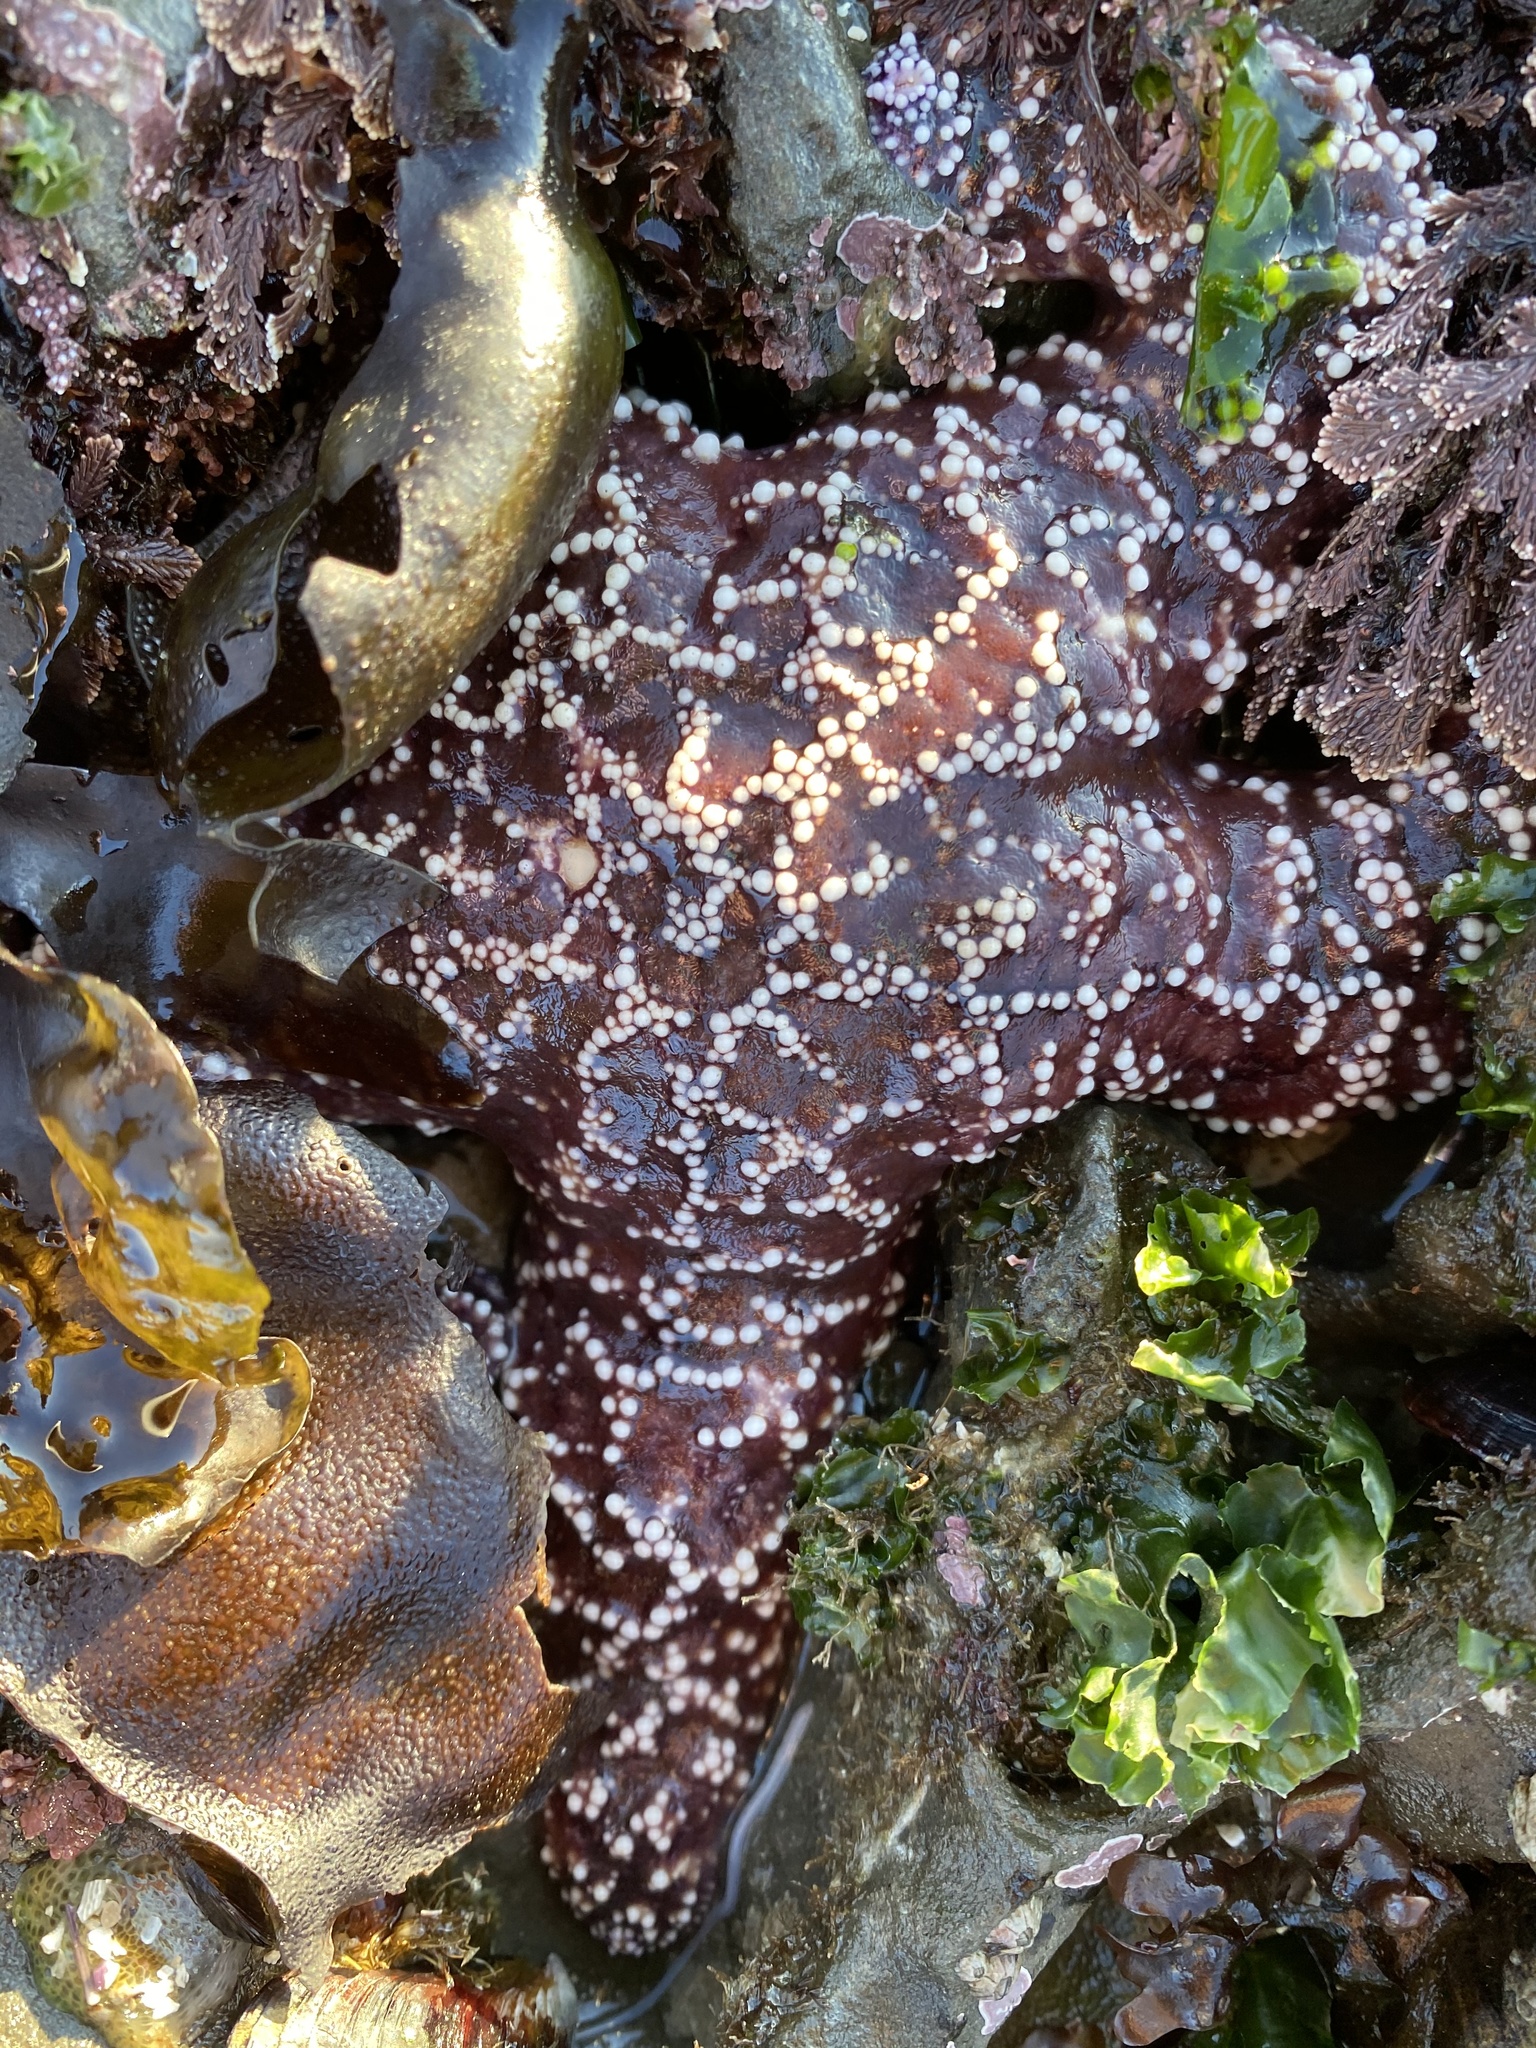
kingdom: Animalia
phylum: Echinodermata
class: Asteroidea
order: Forcipulatida
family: Asteriidae
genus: Pisaster
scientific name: Pisaster ochraceus
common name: Ochre stars
